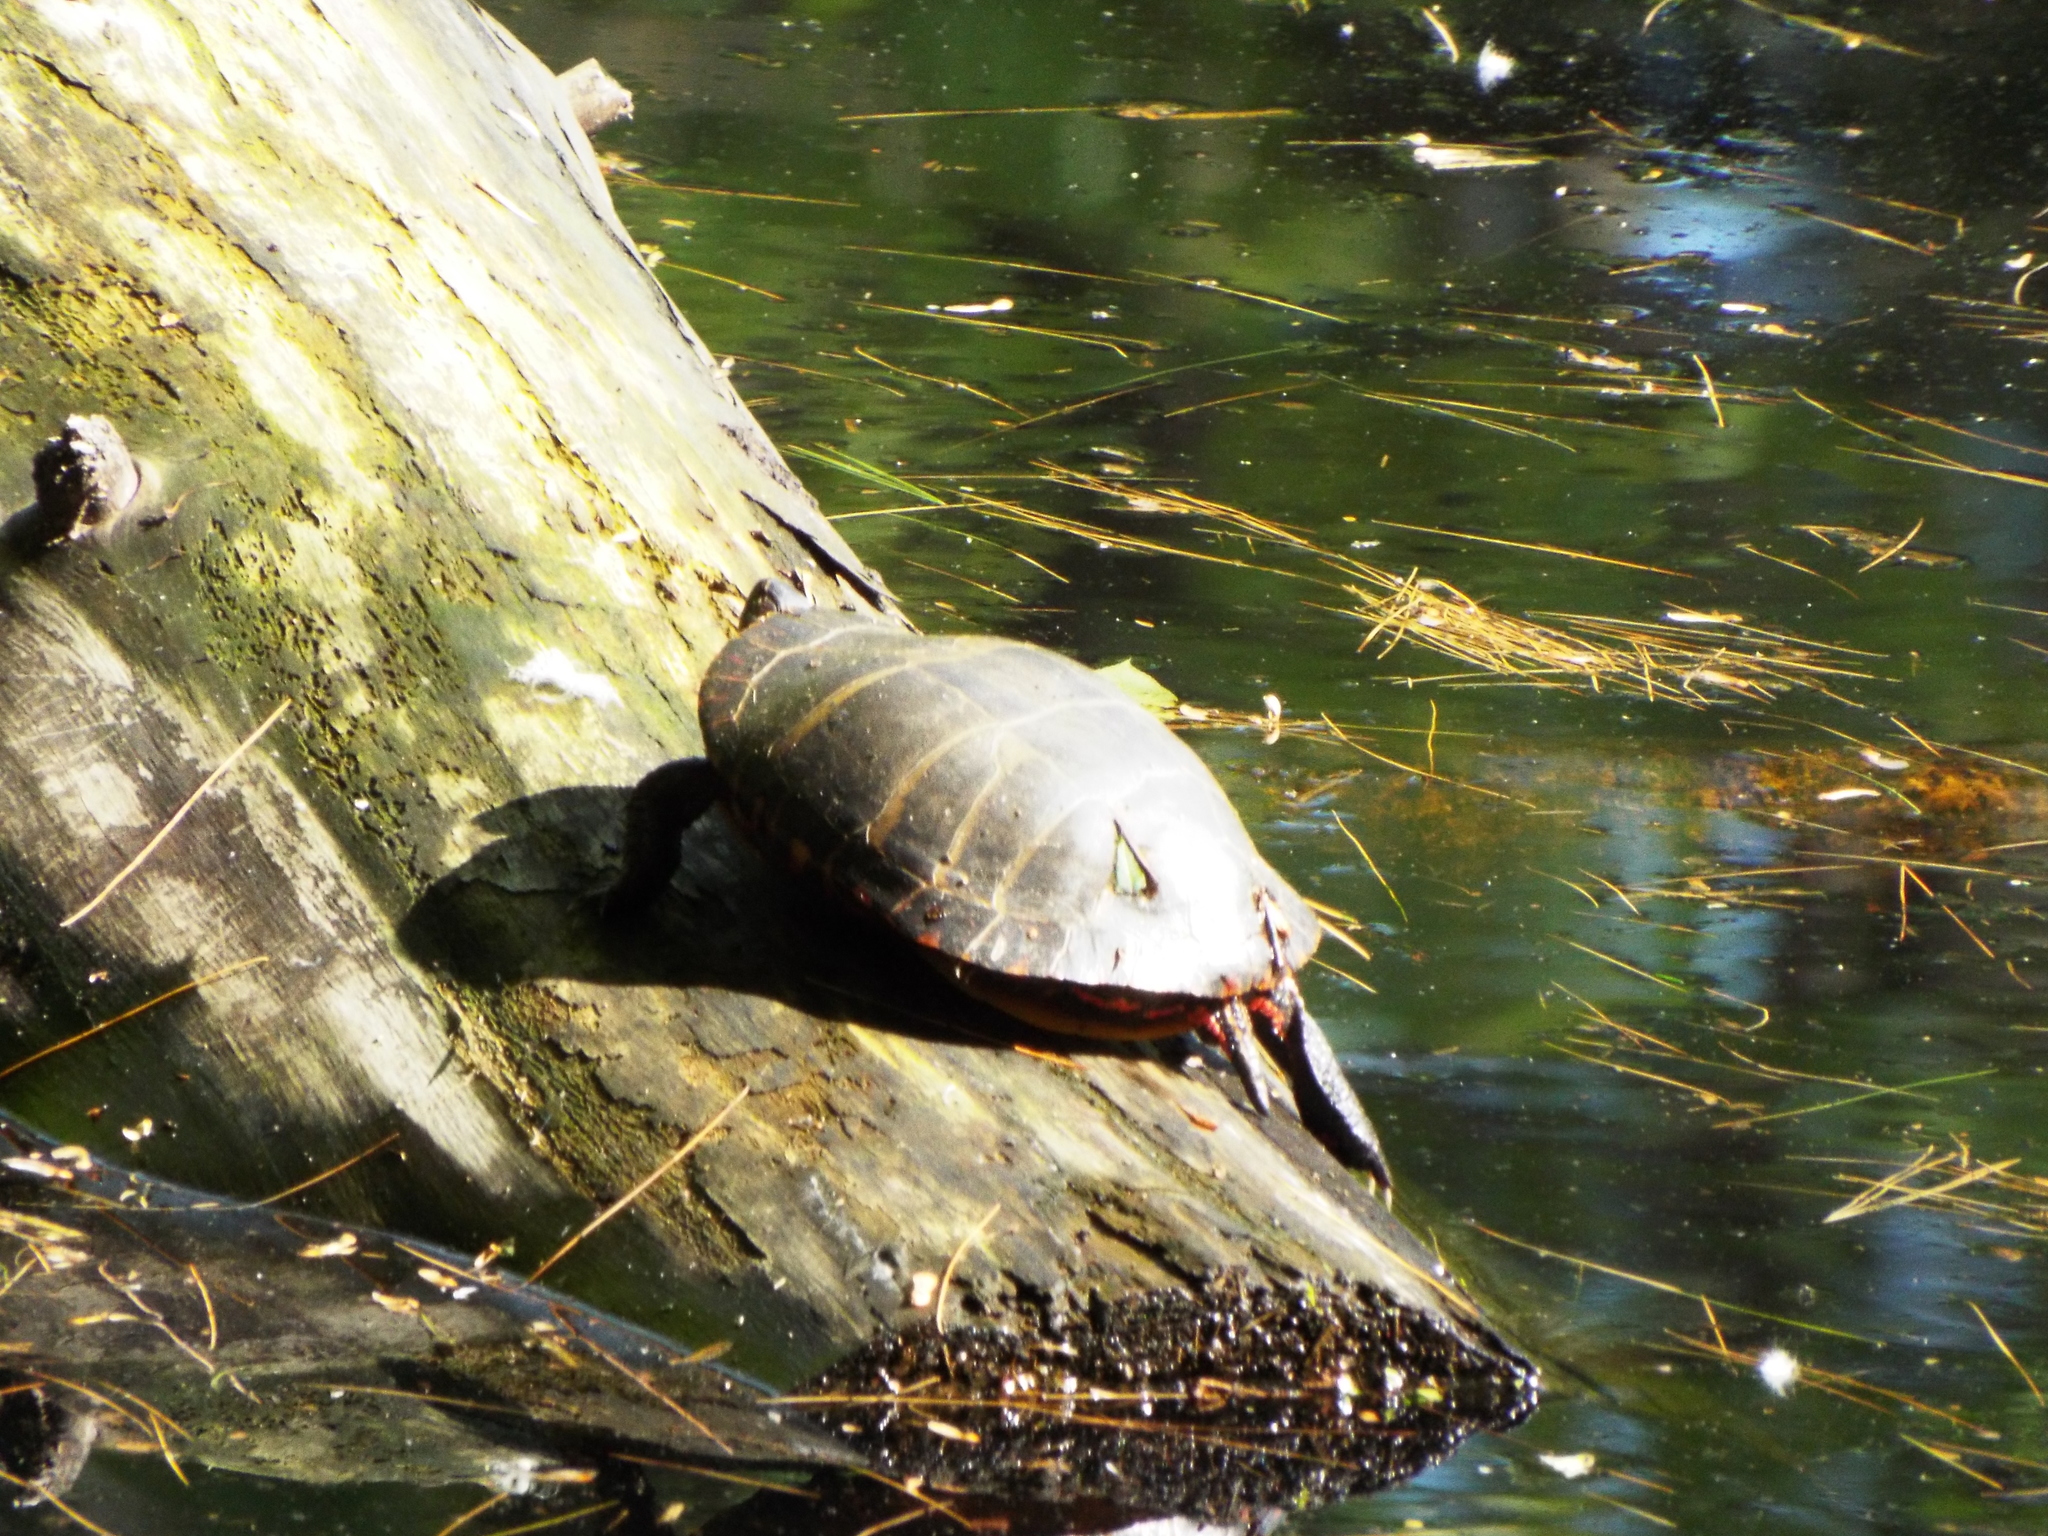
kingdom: Animalia
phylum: Chordata
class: Testudines
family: Emydidae
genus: Chrysemys
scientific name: Chrysemys picta
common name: Painted turtle
